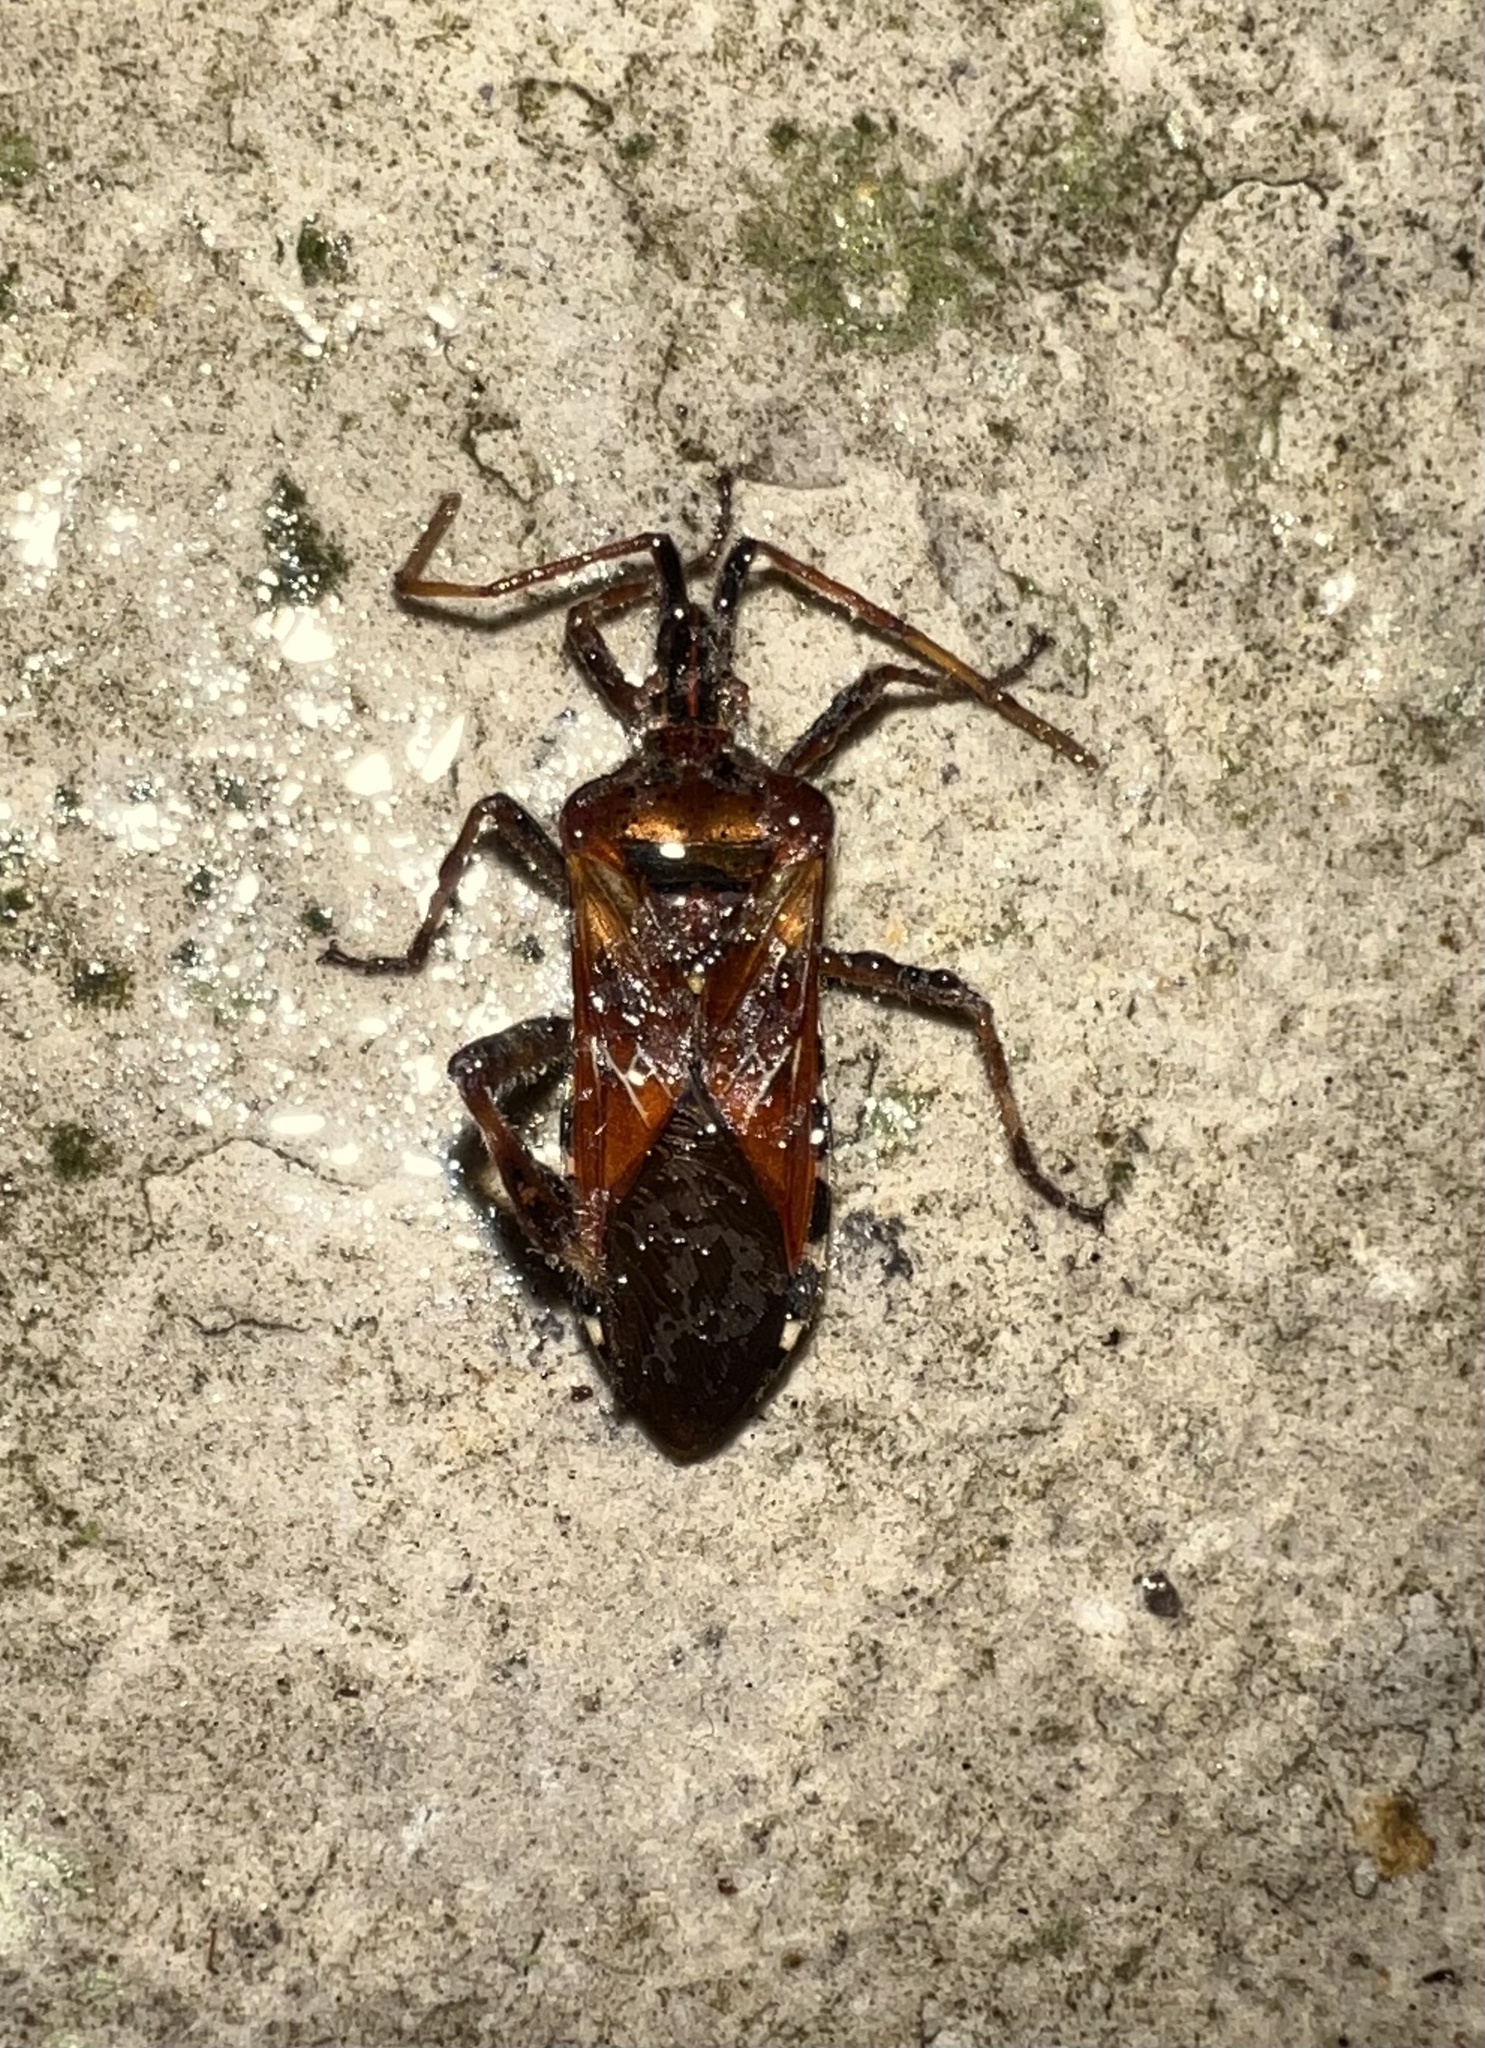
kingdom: Animalia
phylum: Arthropoda
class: Insecta
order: Hemiptera
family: Coreidae
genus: Leptoglossus
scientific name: Leptoglossus occidentalis
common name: Western conifer-seed bug
